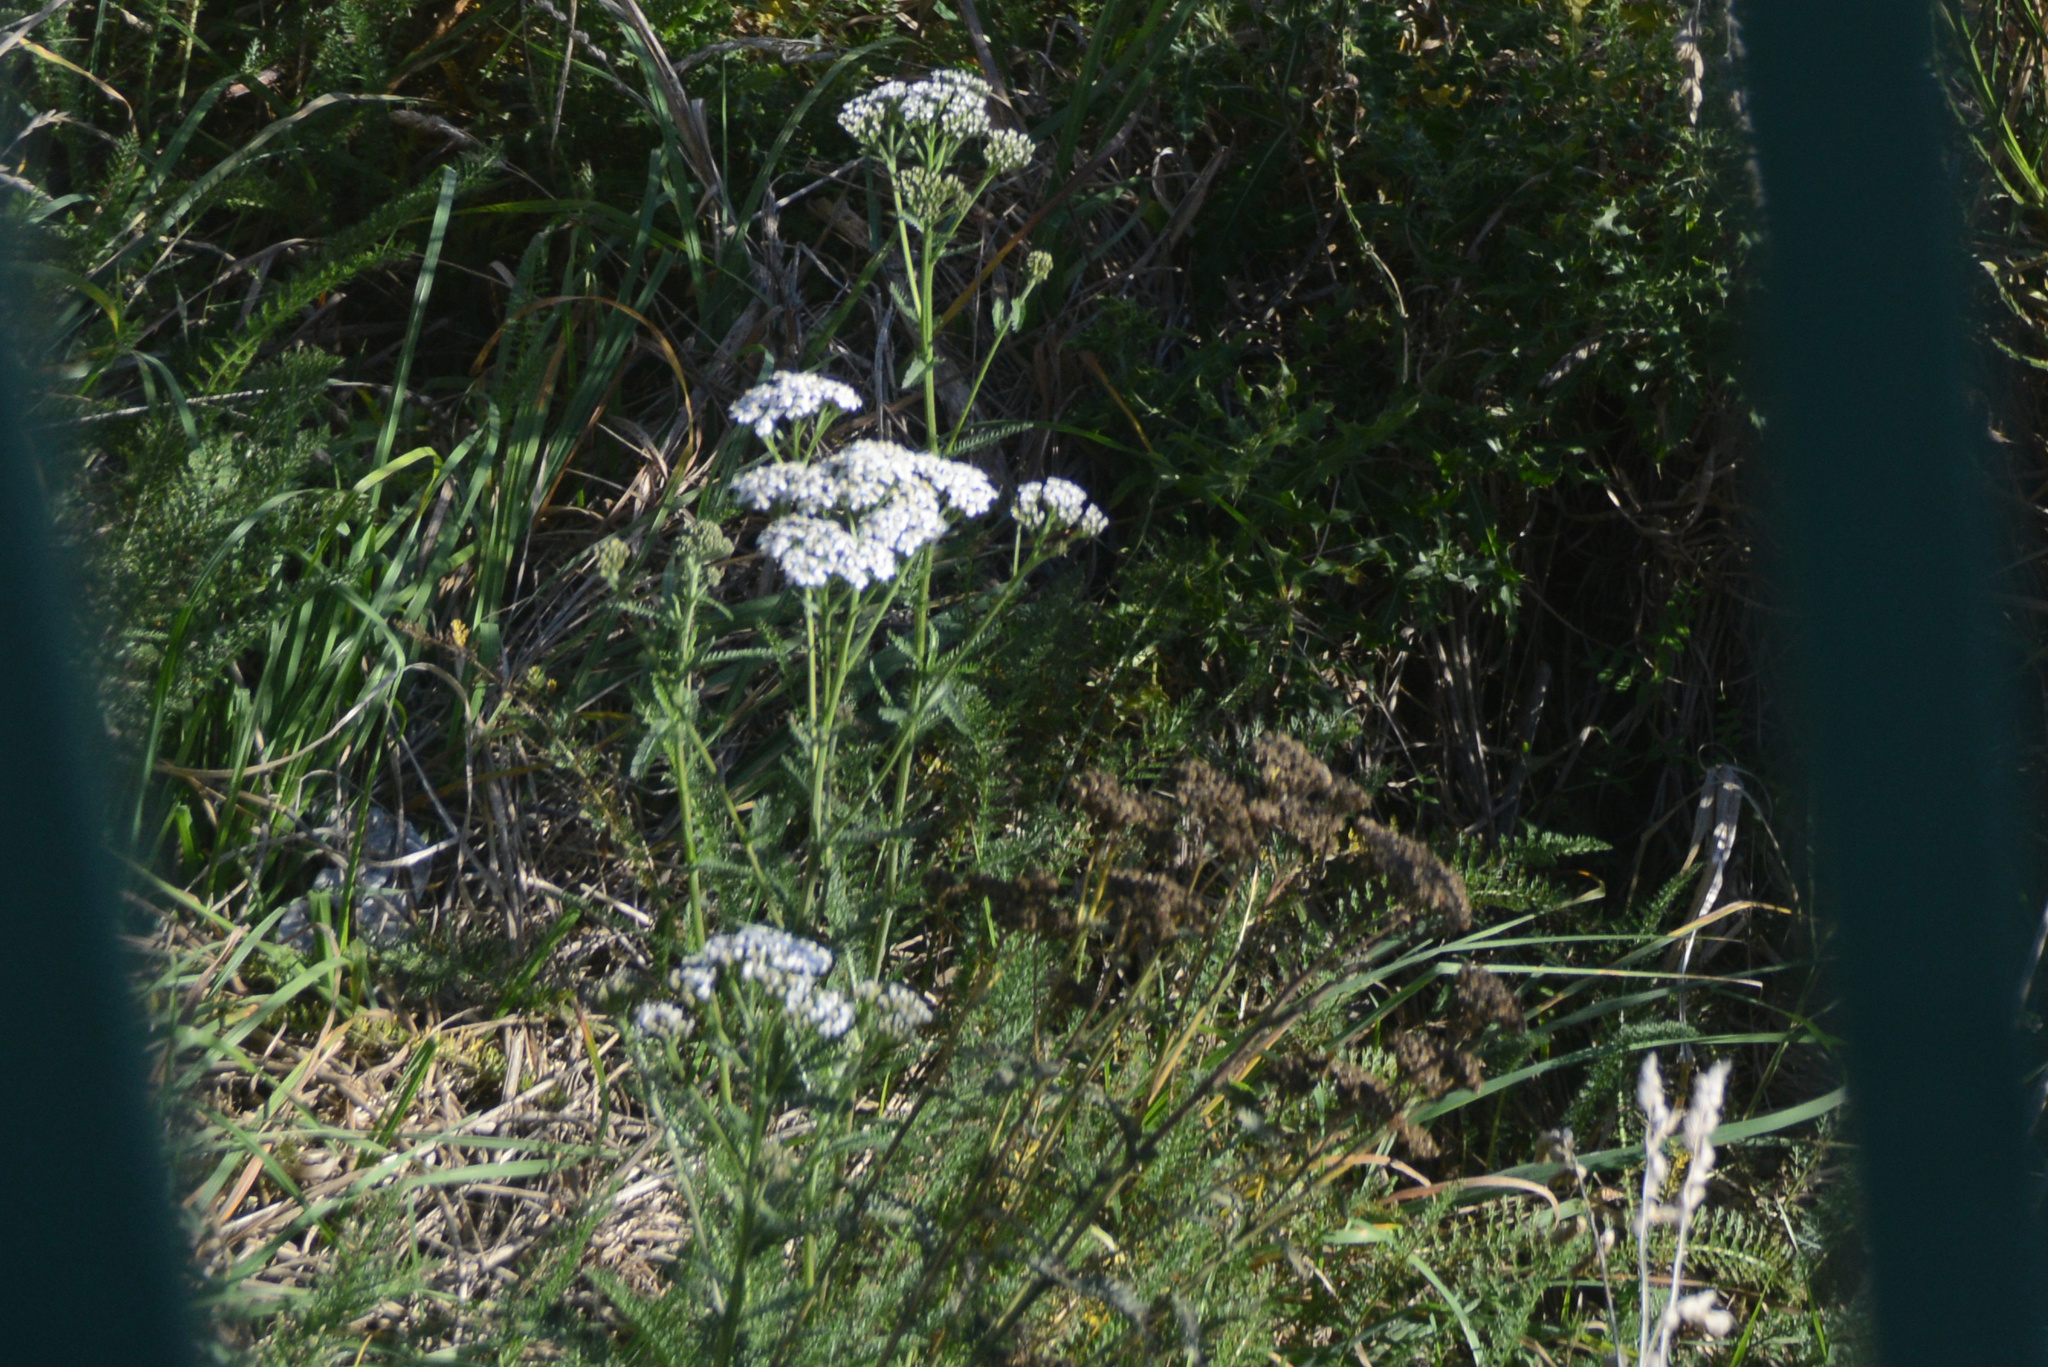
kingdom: Plantae
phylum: Tracheophyta
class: Magnoliopsida
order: Asterales
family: Asteraceae
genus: Achillea
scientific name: Achillea millefolium
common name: Yarrow
